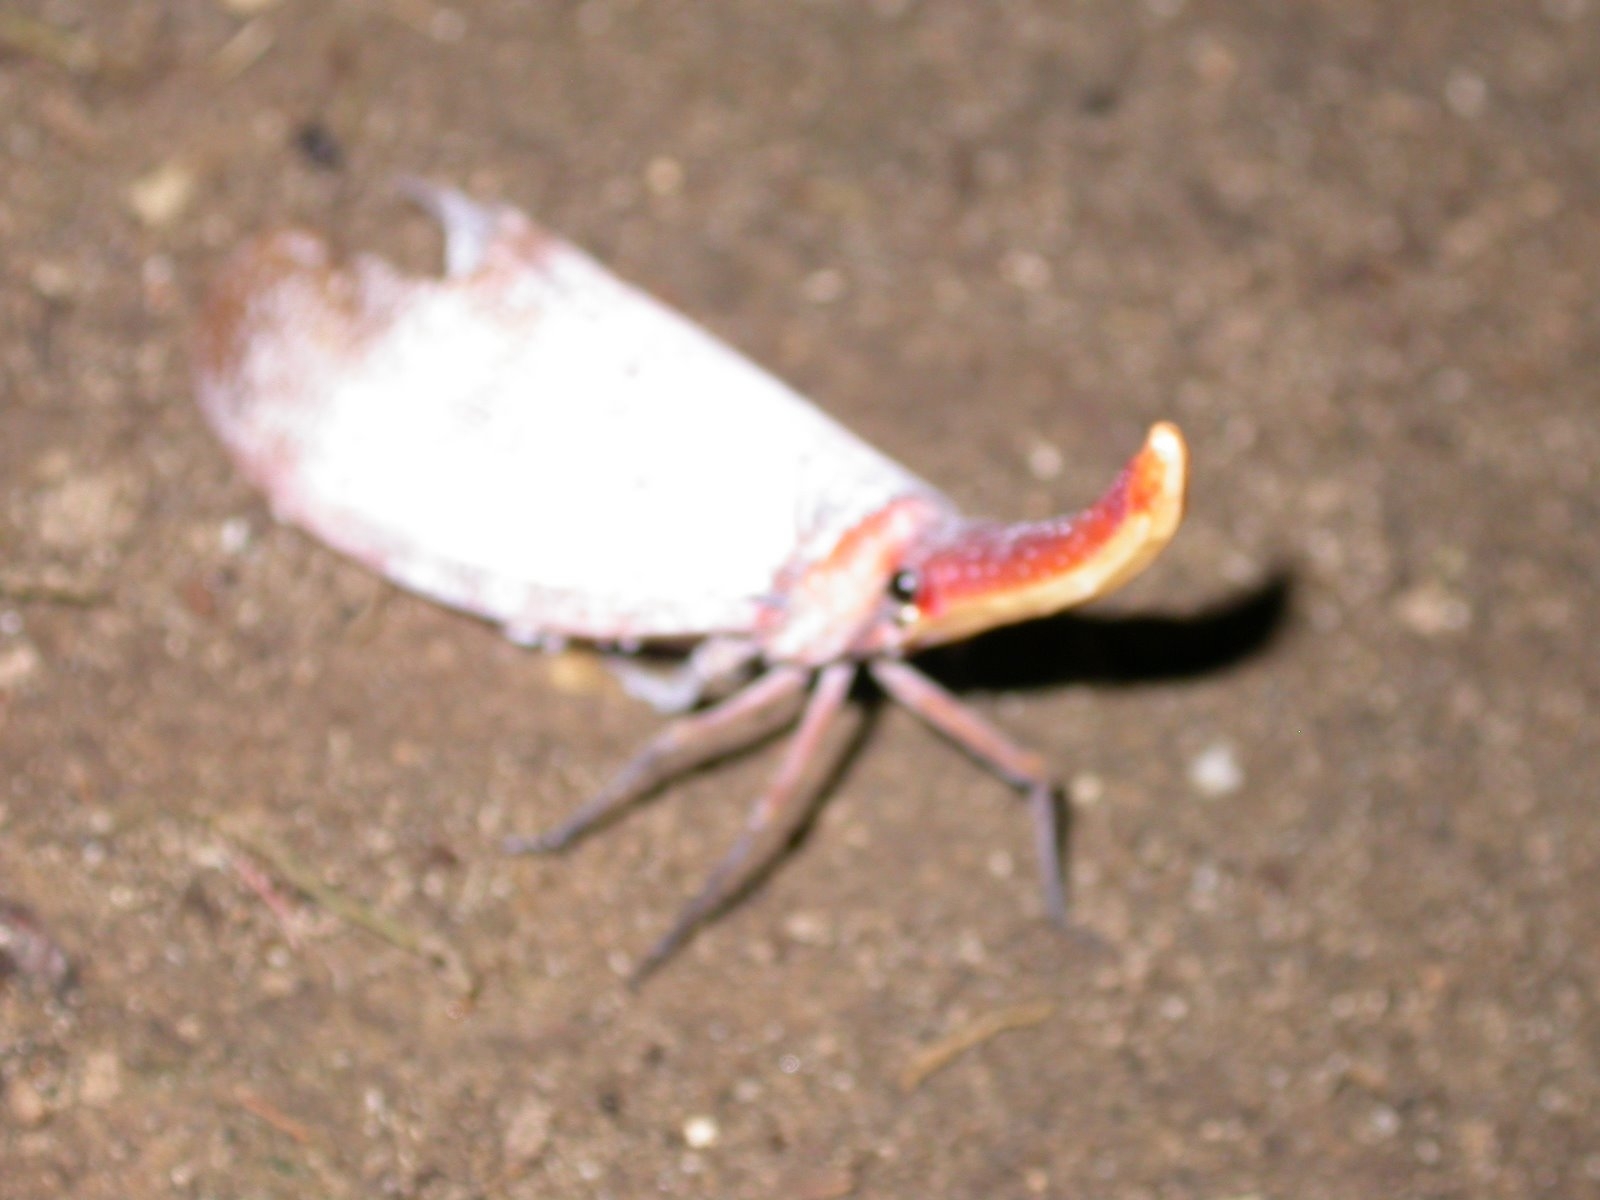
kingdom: Animalia
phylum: Arthropoda
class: Insecta
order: Hemiptera
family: Fulgoridae
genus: Pyrops
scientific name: Pyrops sultanus
